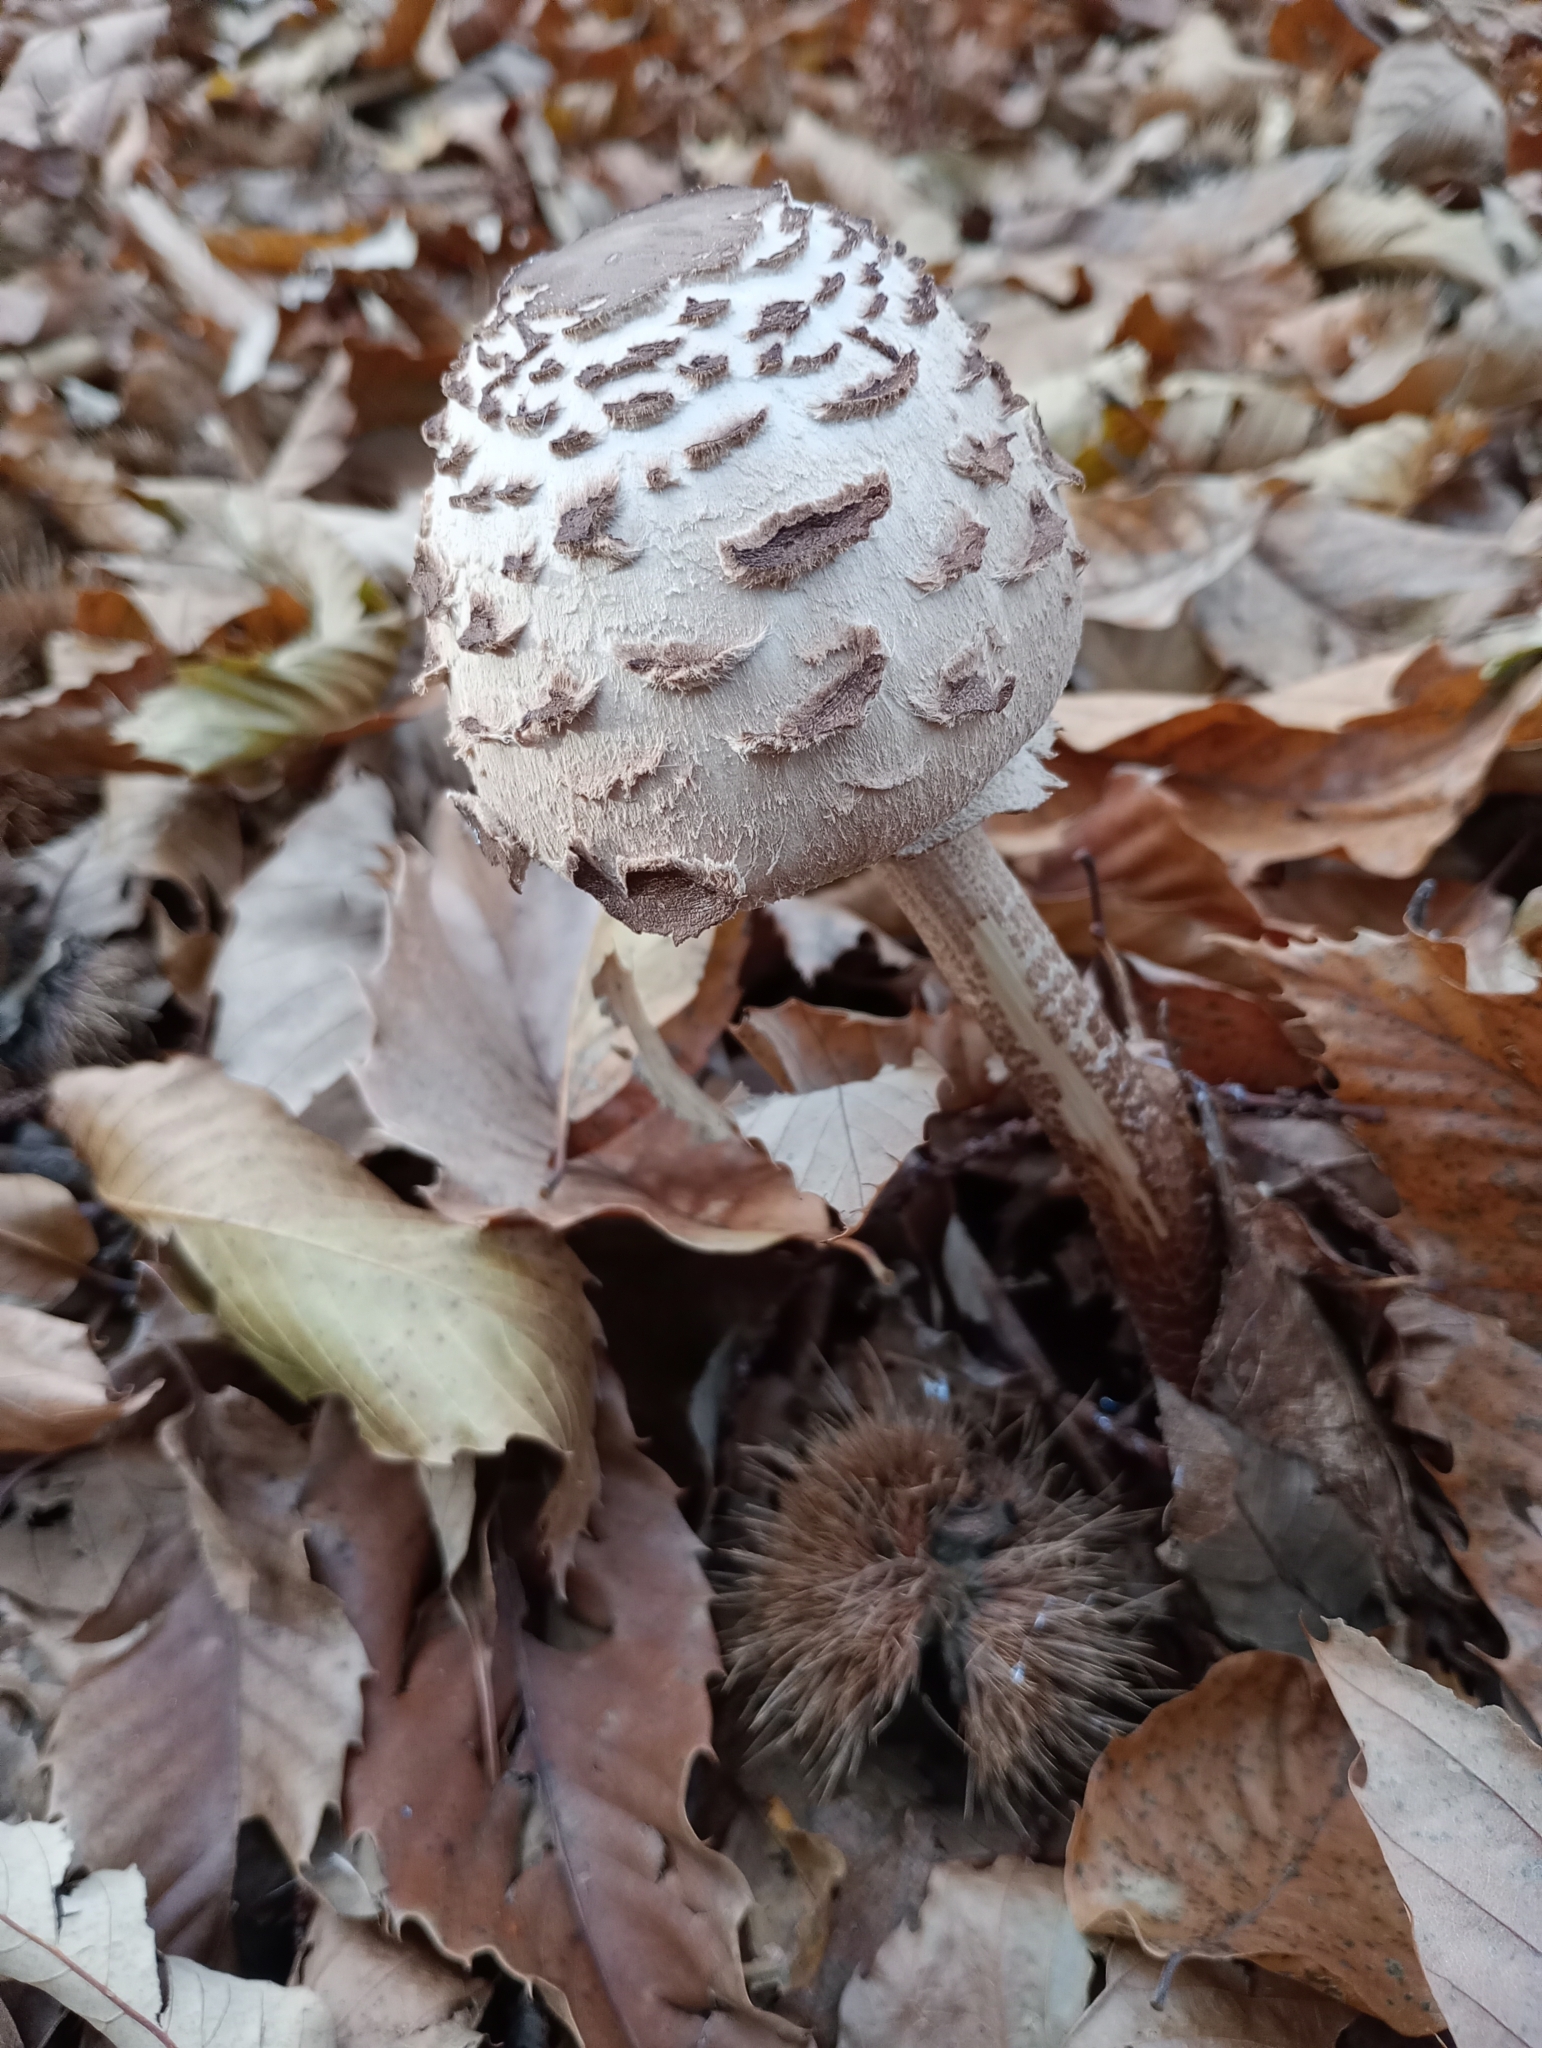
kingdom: Fungi
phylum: Basidiomycota
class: Agaricomycetes
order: Agaricales
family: Agaricaceae
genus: Macrolepiota
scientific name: Macrolepiota procera
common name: Parasol
